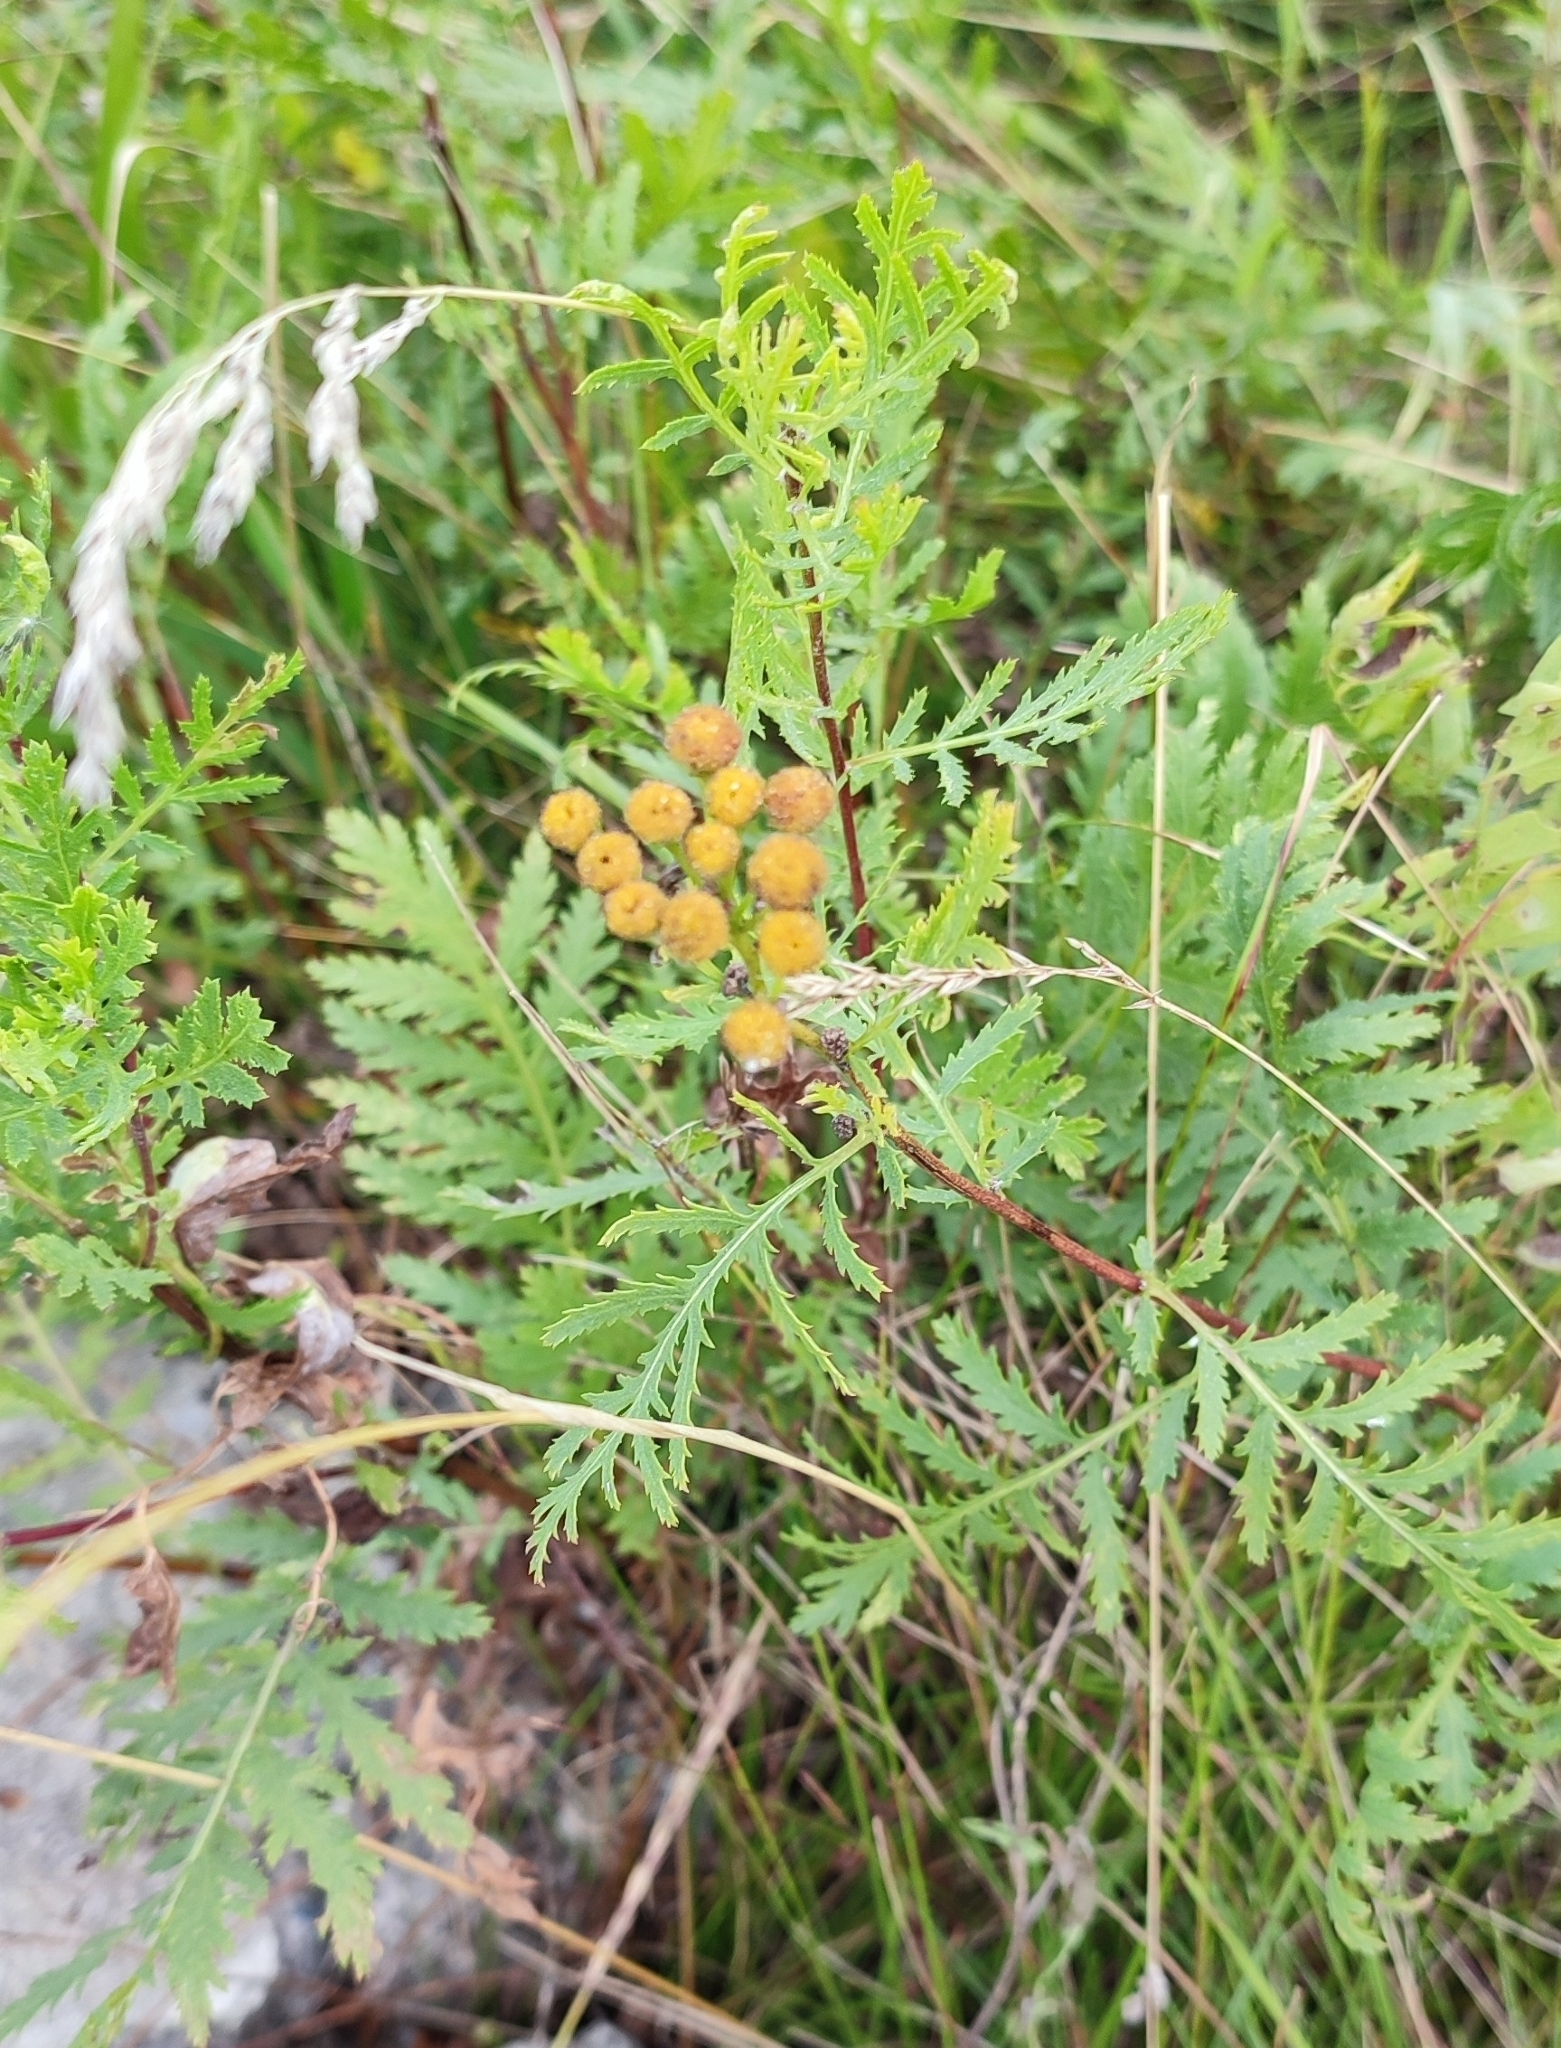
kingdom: Plantae
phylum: Tracheophyta
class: Magnoliopsida
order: Asterales
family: Asteraceae
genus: Tanacetum
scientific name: Tanacetum vulgare
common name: Common tansy
